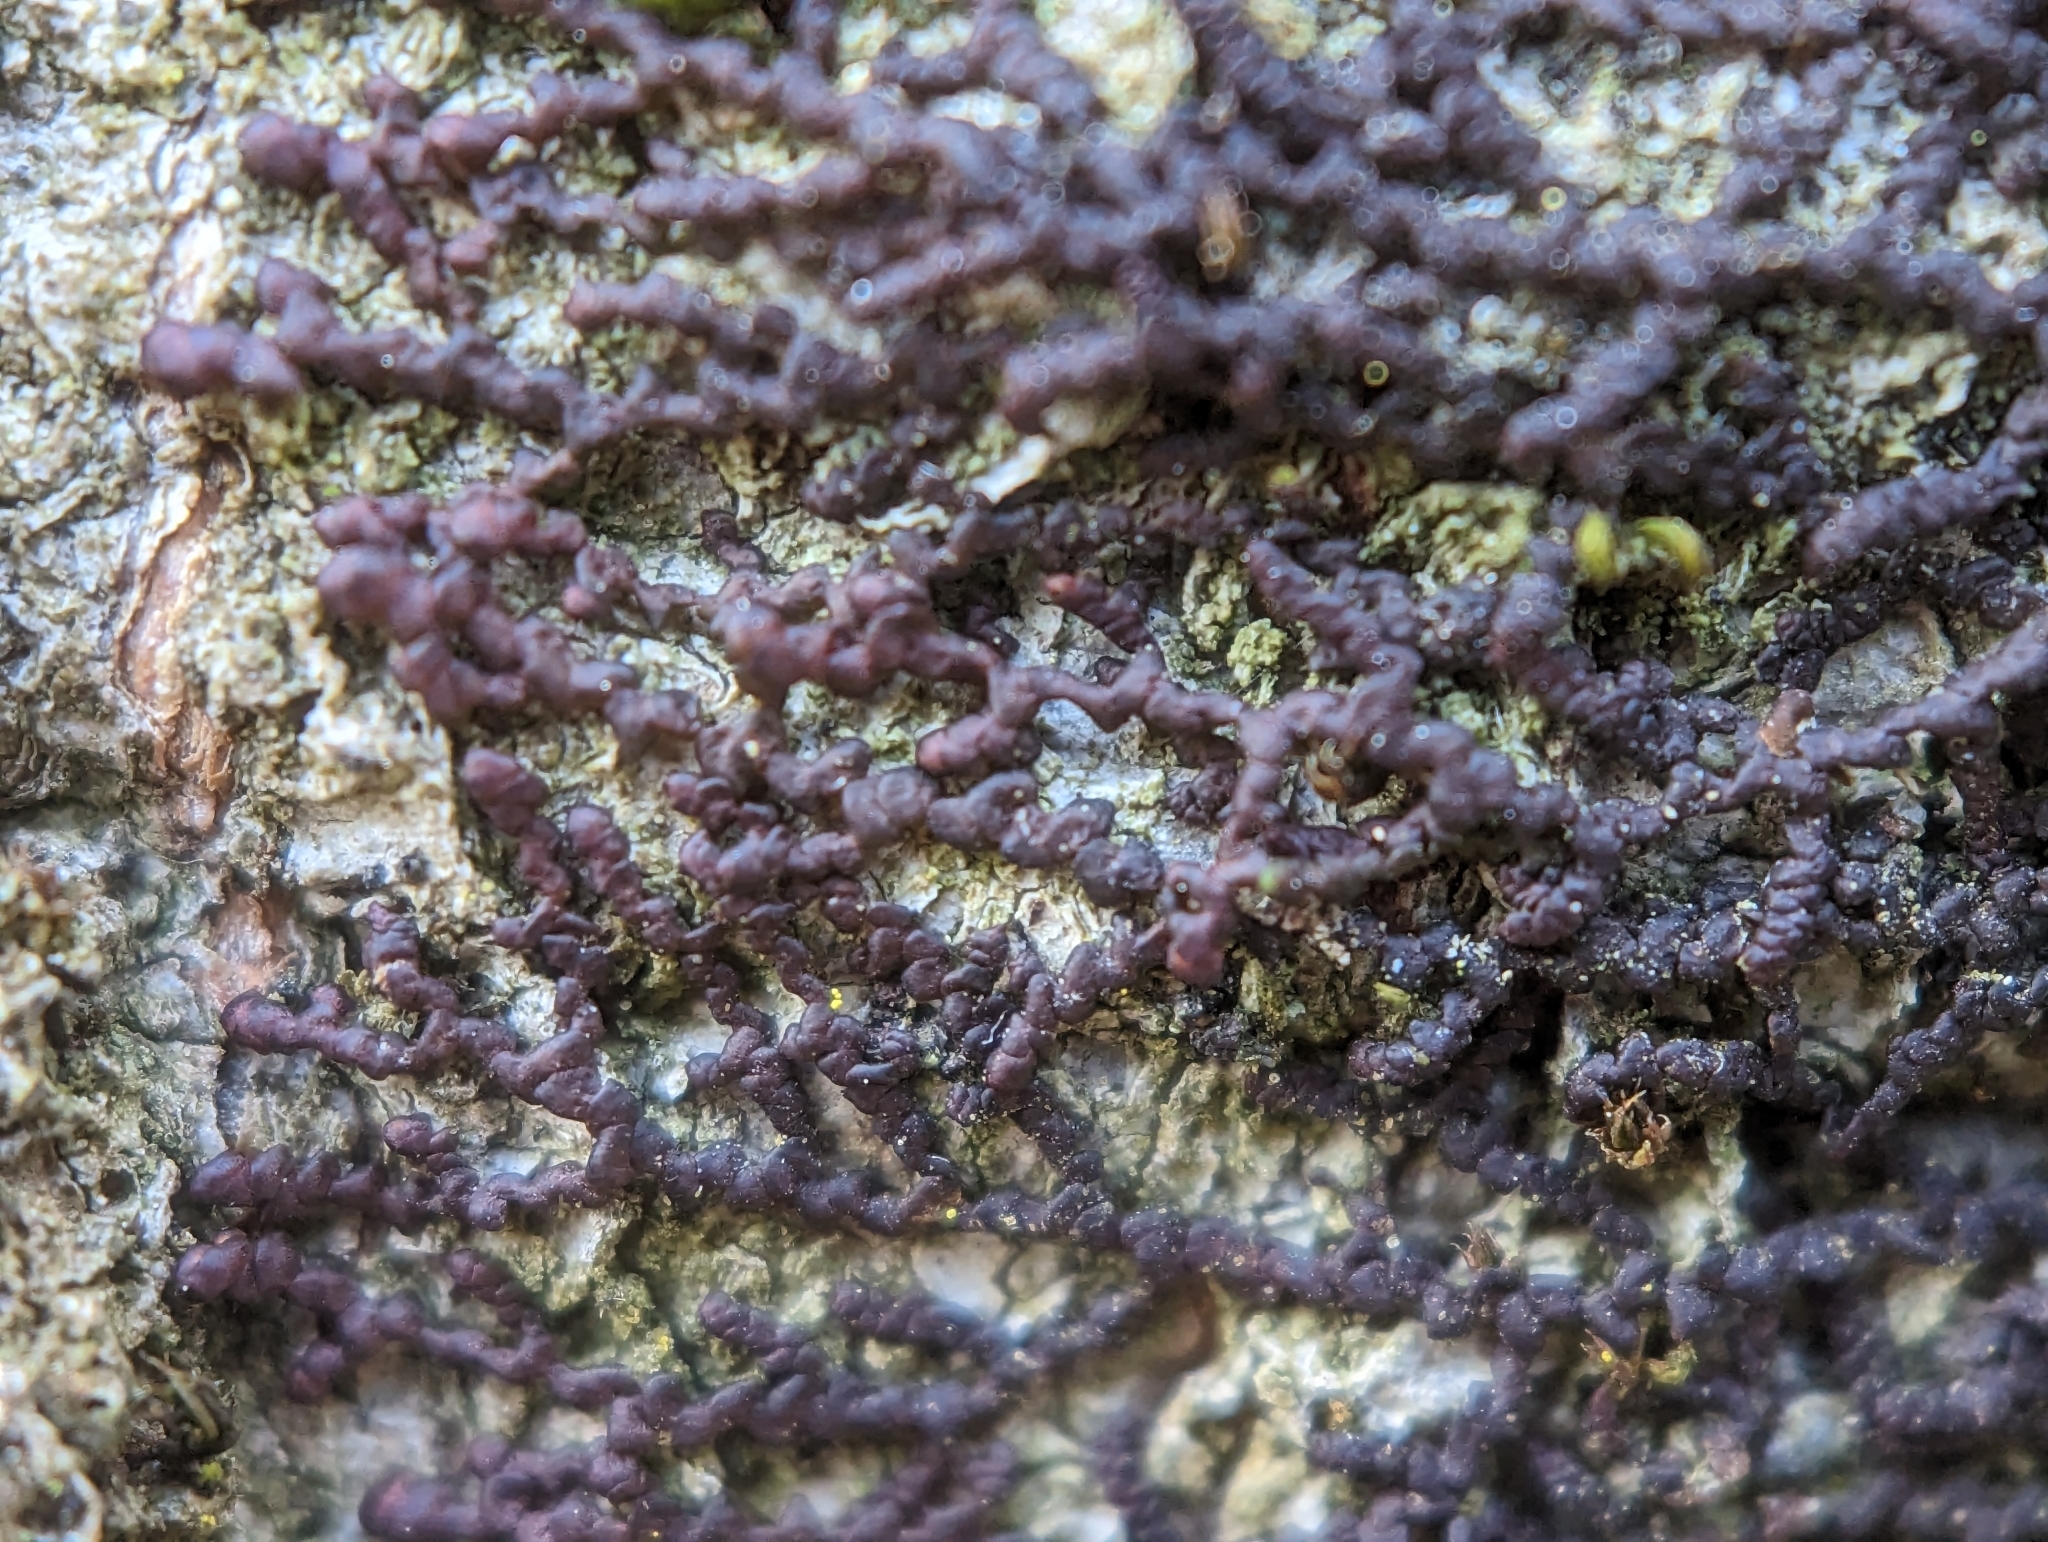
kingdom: Plantae
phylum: Marchantiophyta
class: Jungermanniopsida
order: Porellales
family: Frullaniaceae
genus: Frullania
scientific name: Frullania dilatata
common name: Dilated scalewort
